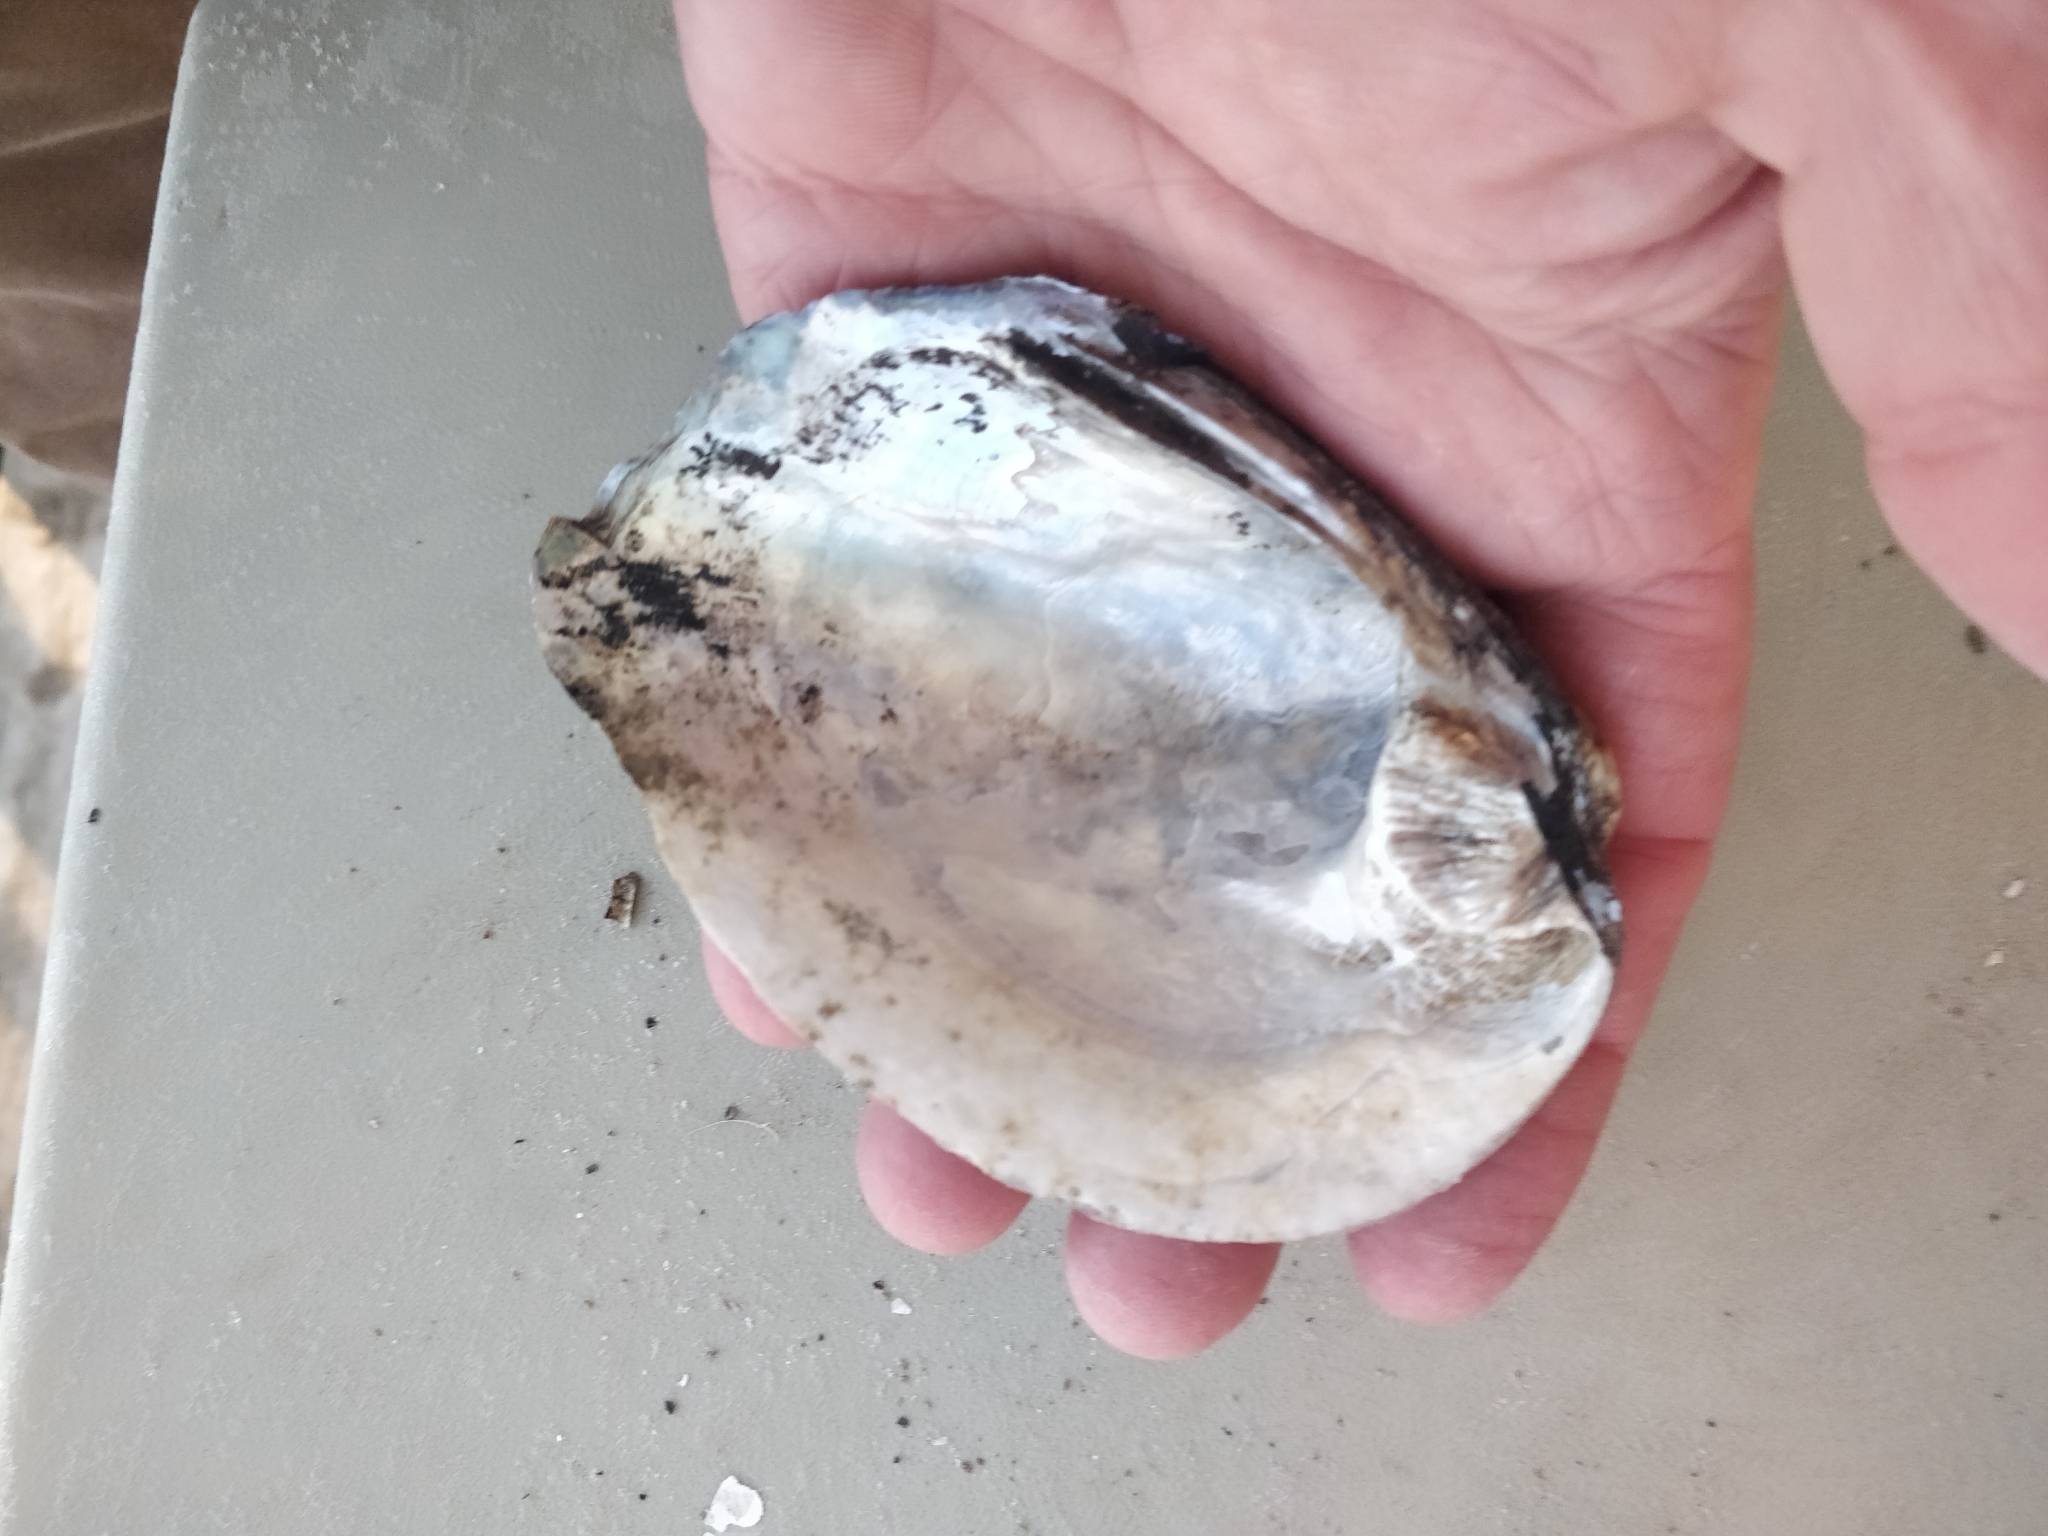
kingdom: Animalia
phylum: Mollusca
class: Bivalvia
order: Unionida
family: Unionidae
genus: Amblema
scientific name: Amblema plicata
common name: Threeridge
